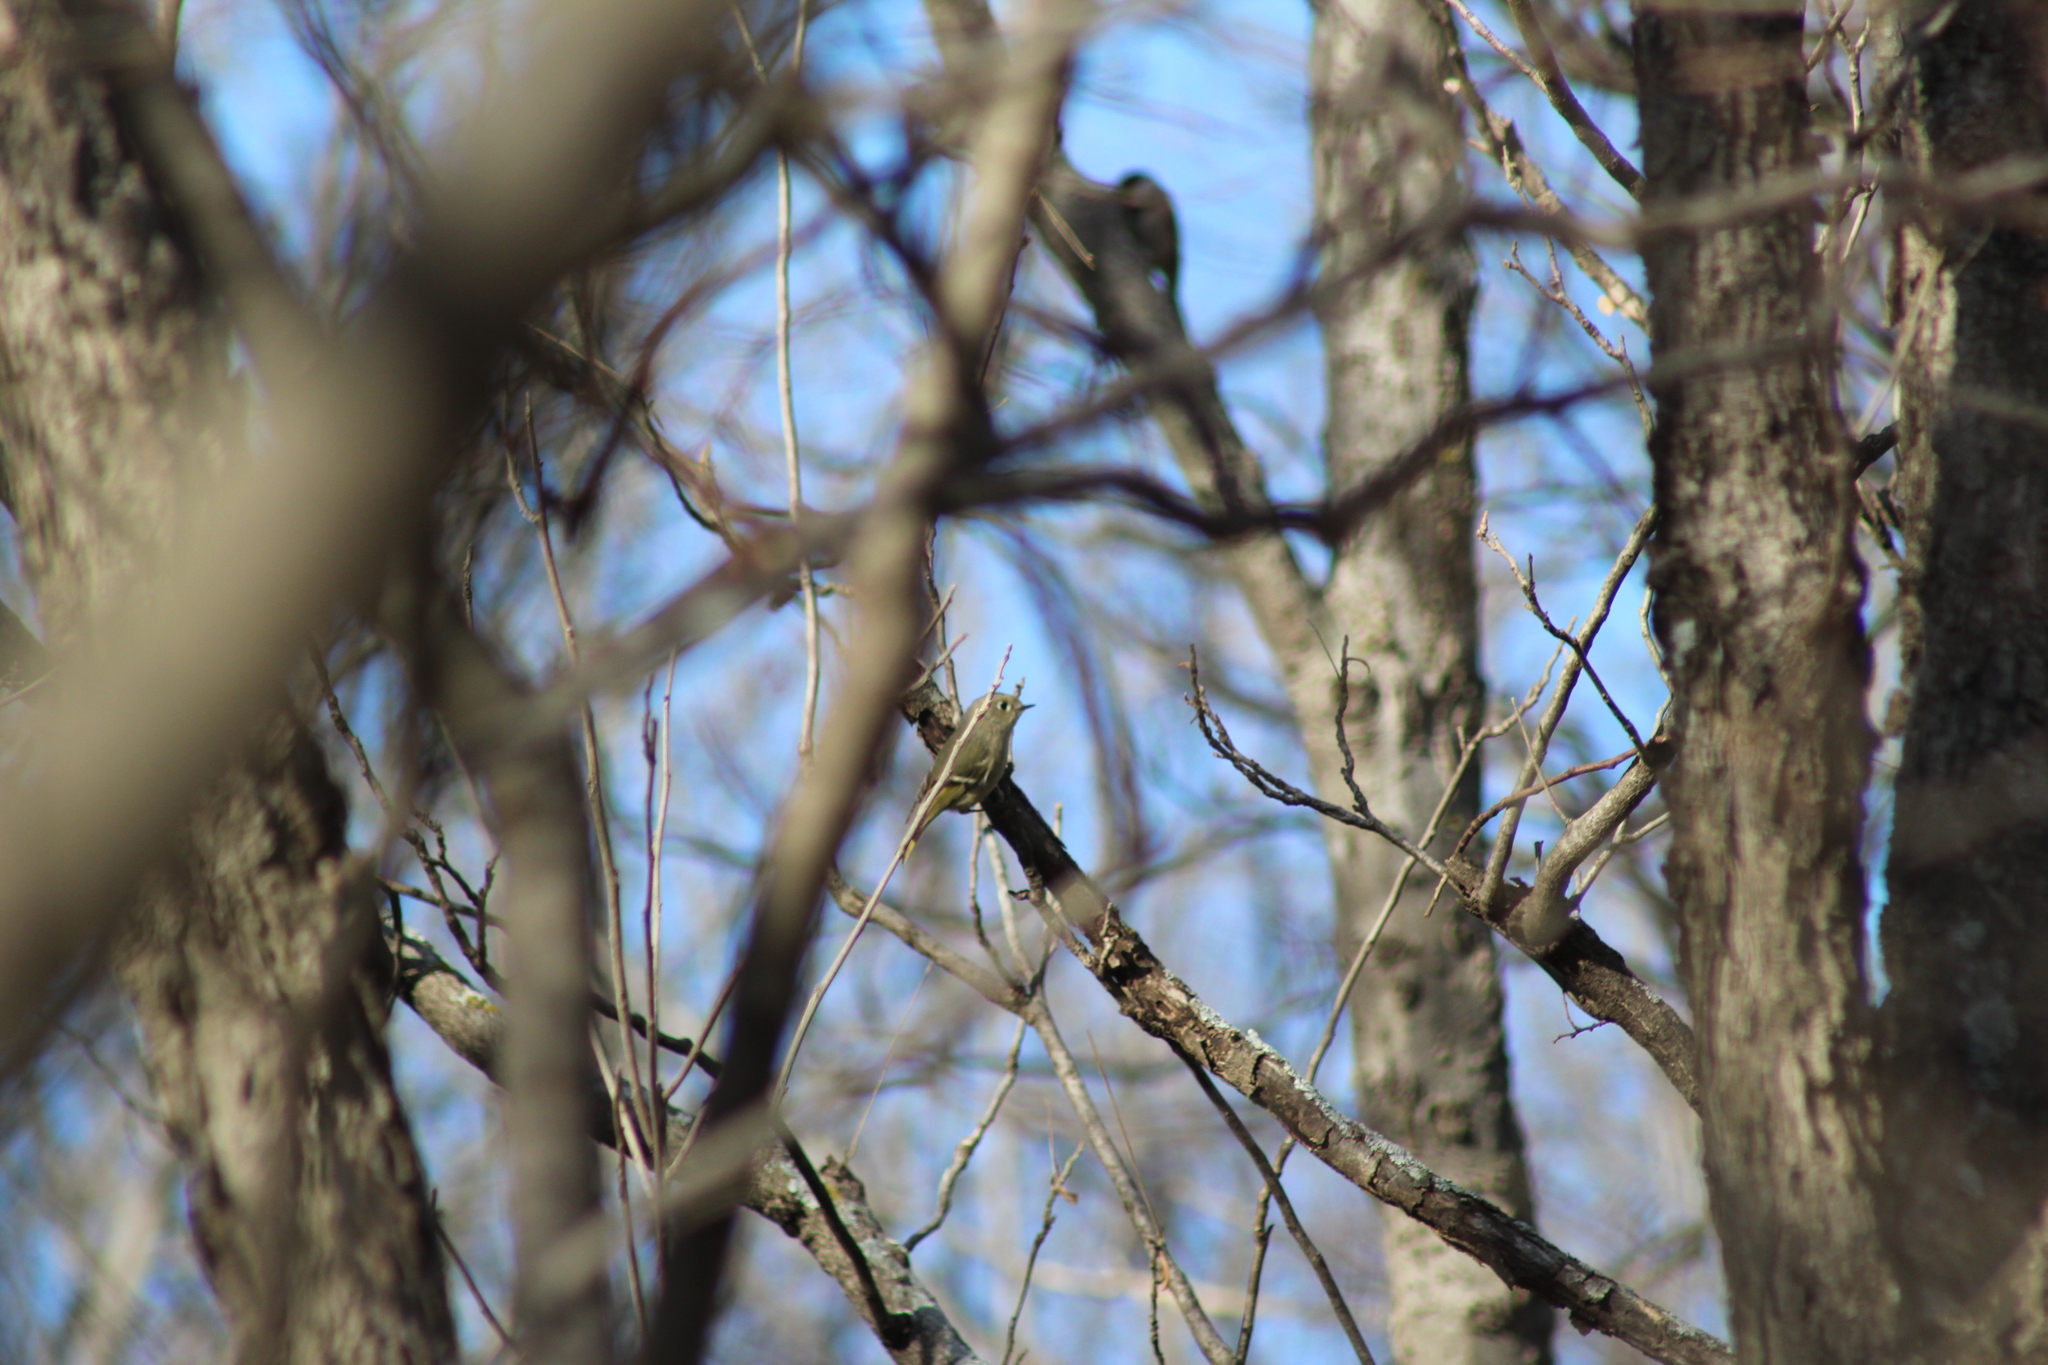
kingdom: Animalia
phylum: Chordata
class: Aves
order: Passeriformes
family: Regulidae
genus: Regulus
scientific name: Regulus calendula
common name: Ruby-crowned kinglet
